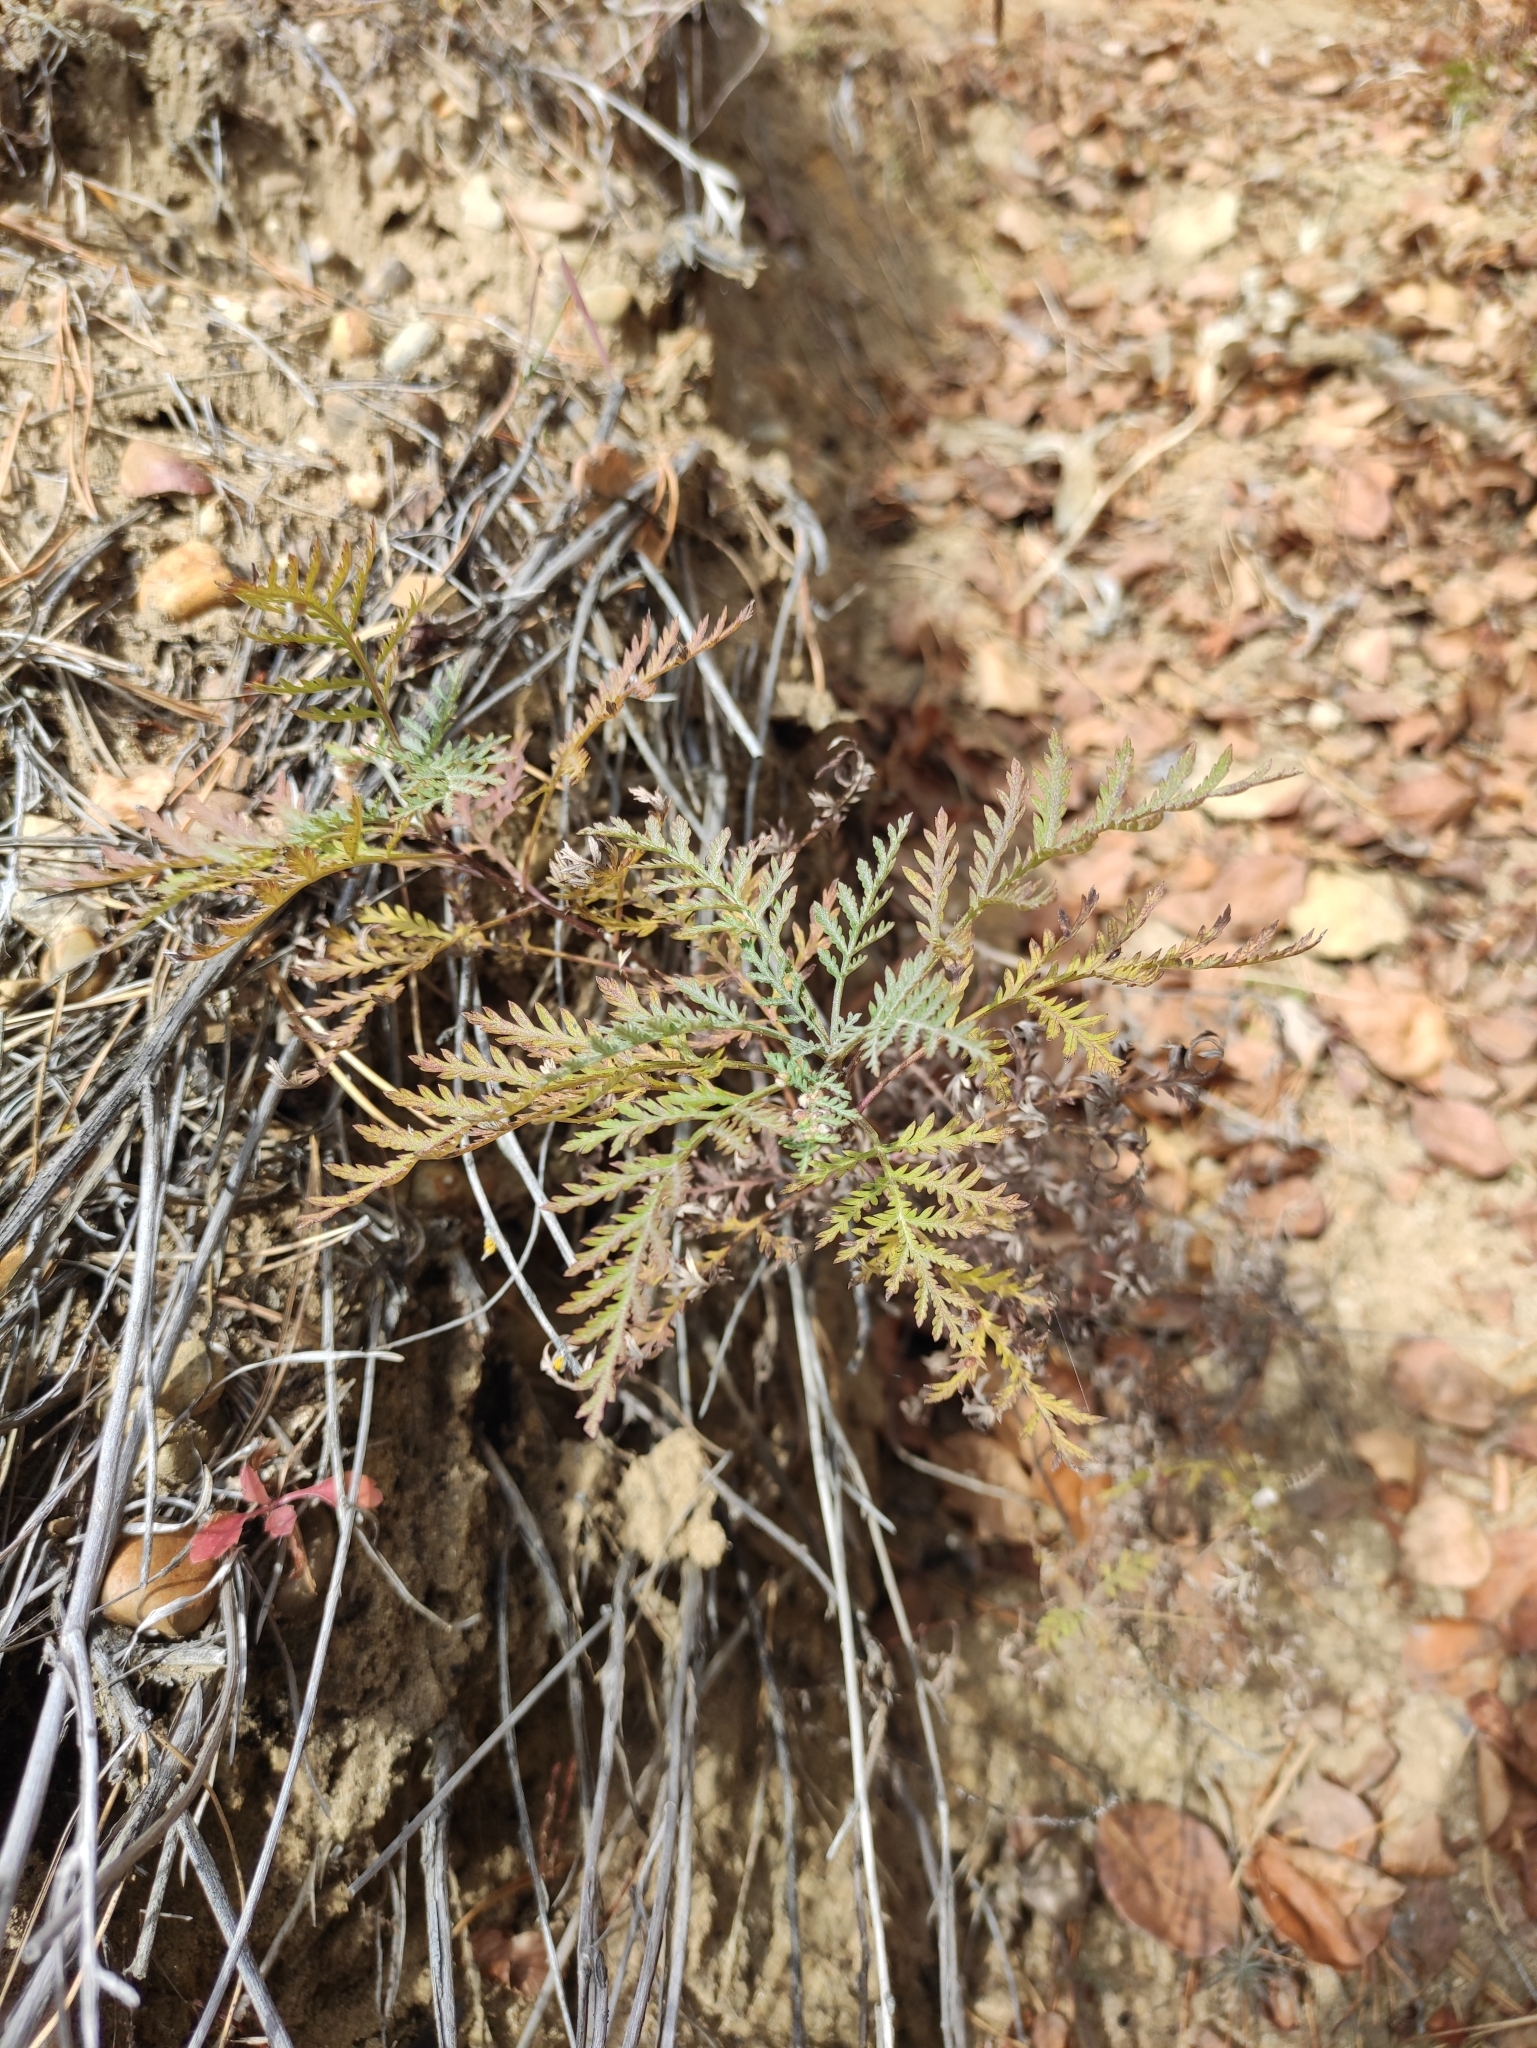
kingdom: Plantae
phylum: Tracheophyta
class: Magnoliopsida
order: Asterales
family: Asteraceae
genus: Artemisia
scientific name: Artemisia gmelinii
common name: Gmelin's wormwood
